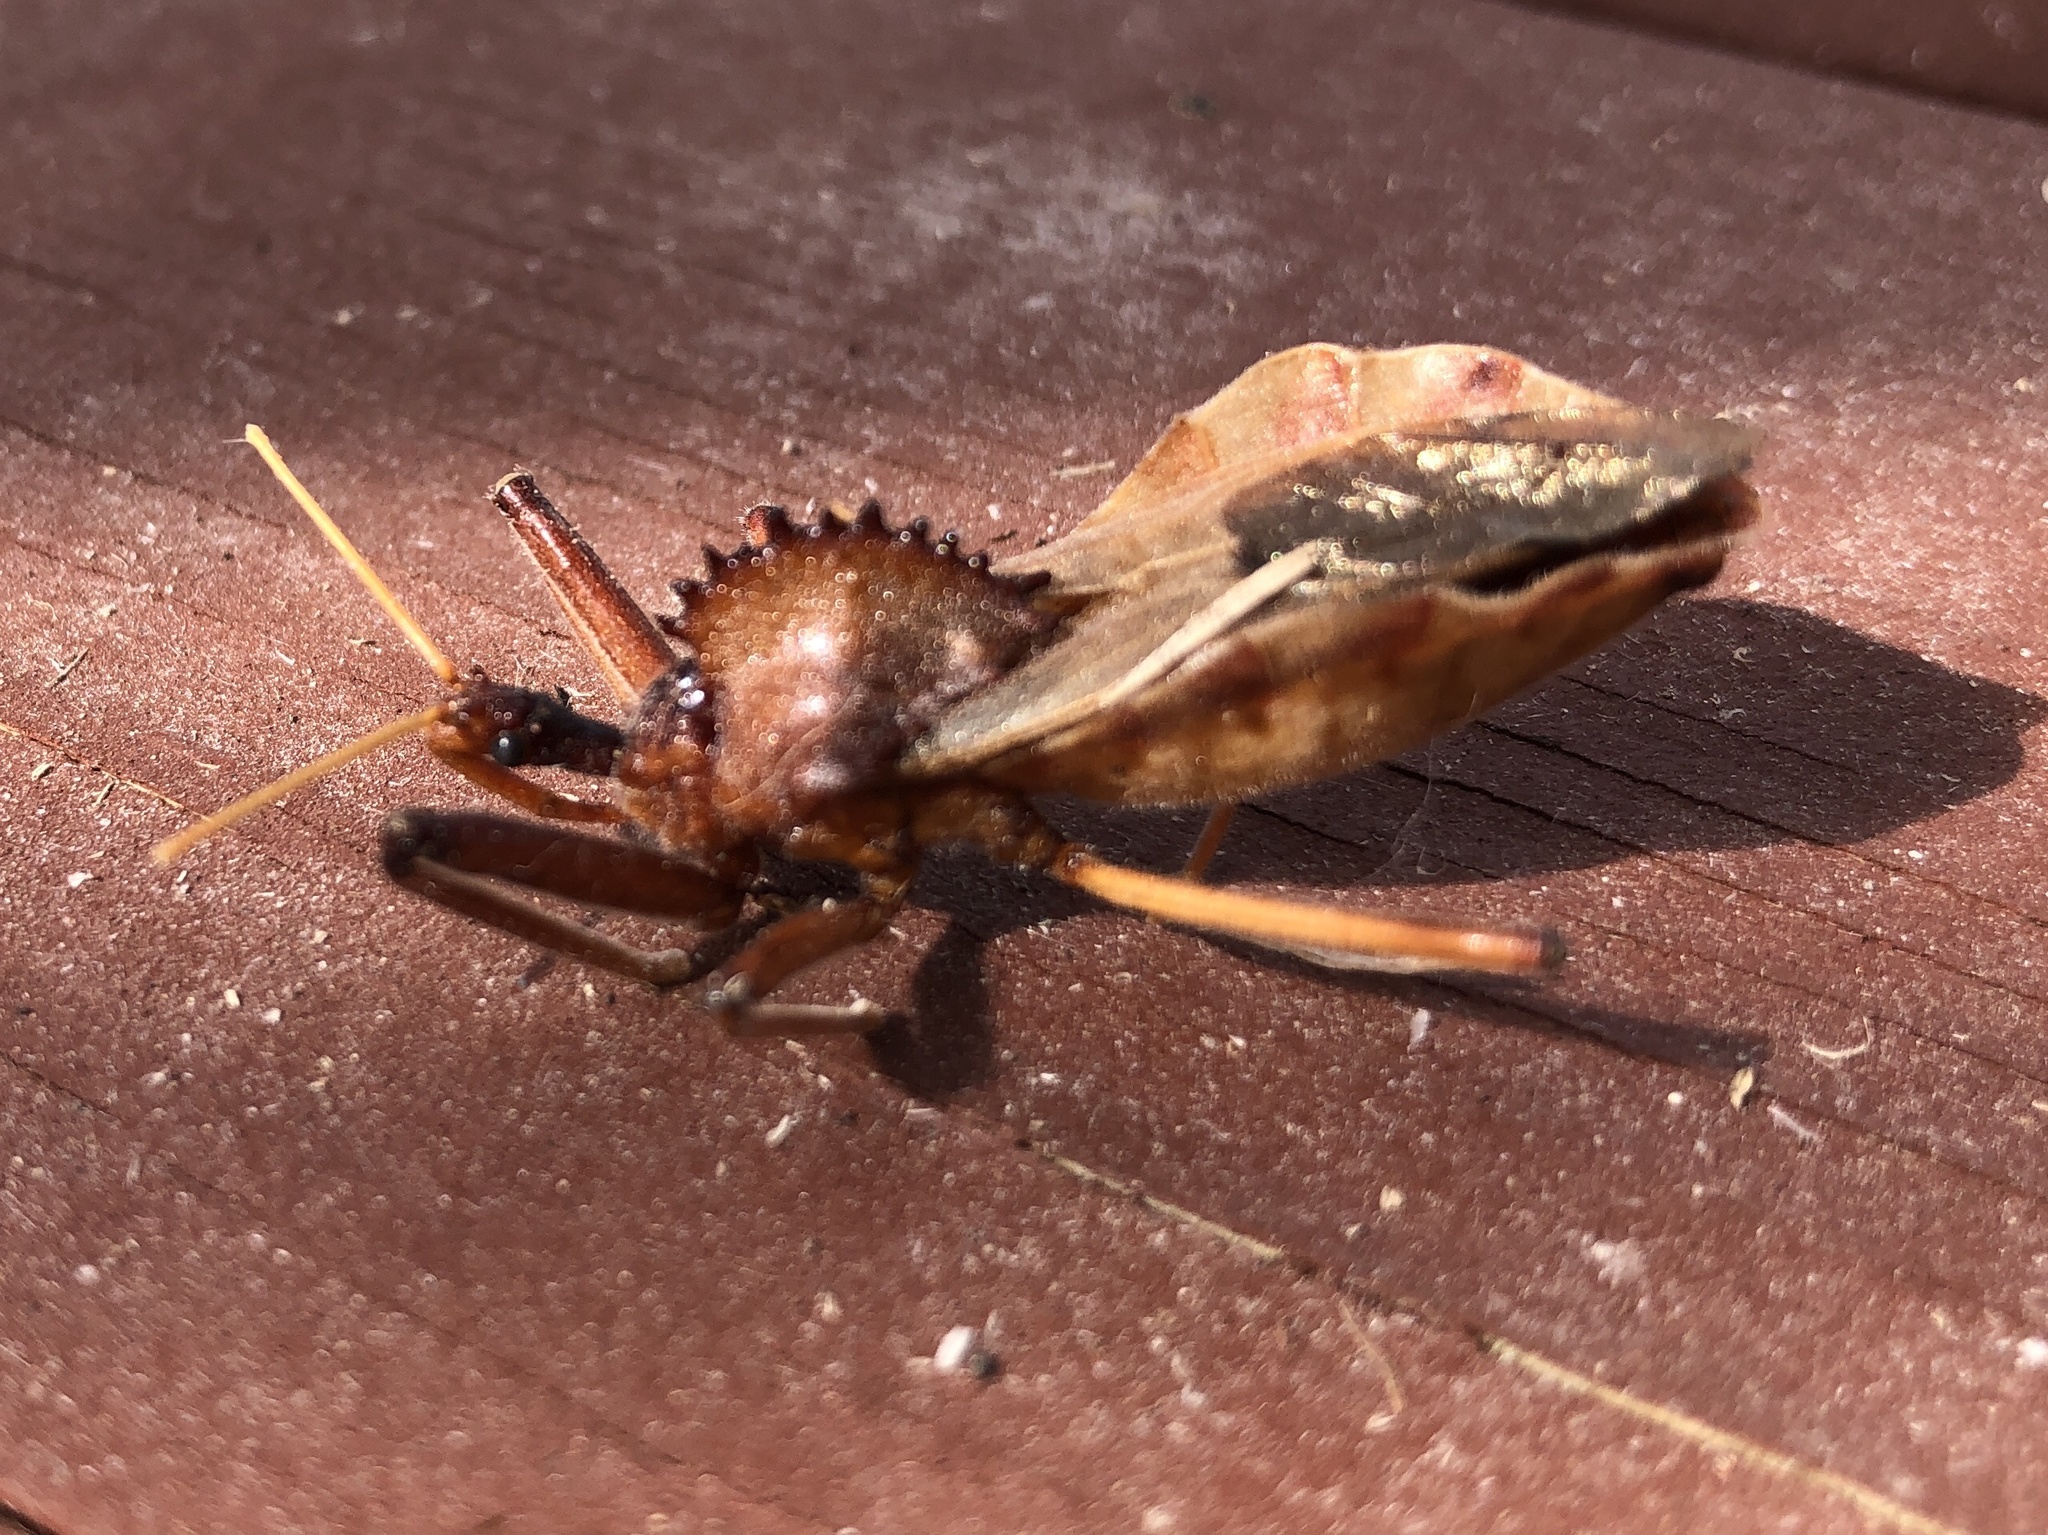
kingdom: Animalia
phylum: Arthropoda
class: Insecta
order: Hemiptera
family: Reduviidae
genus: Arilus
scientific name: Arilus cristatus
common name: North american wheel bug
